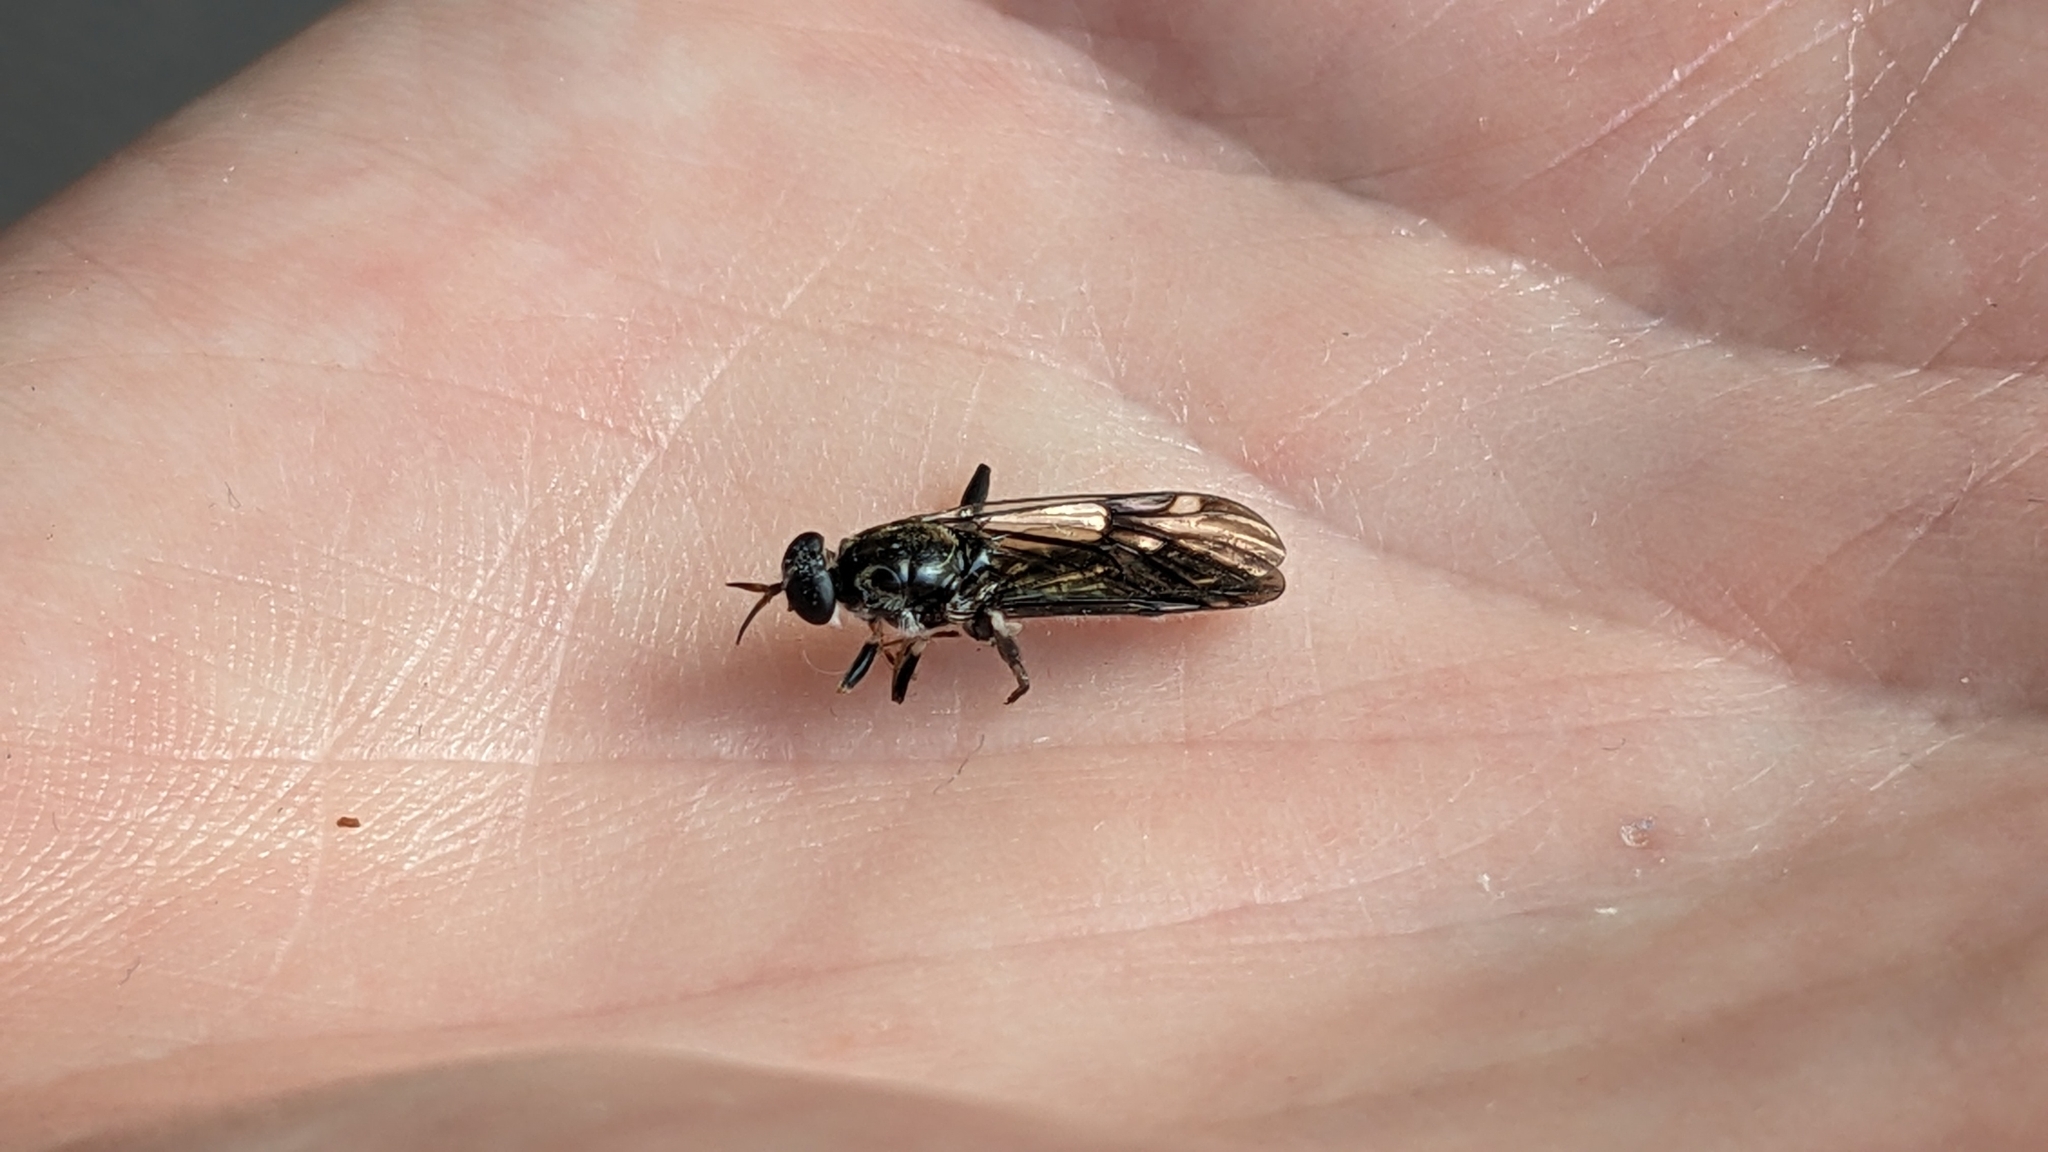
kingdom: Animalia
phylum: Arthropoda
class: Insecta
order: Diptera
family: Stratiomyidae
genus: Exaireta
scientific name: Exaireta spinigera
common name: Blue soldier fly
